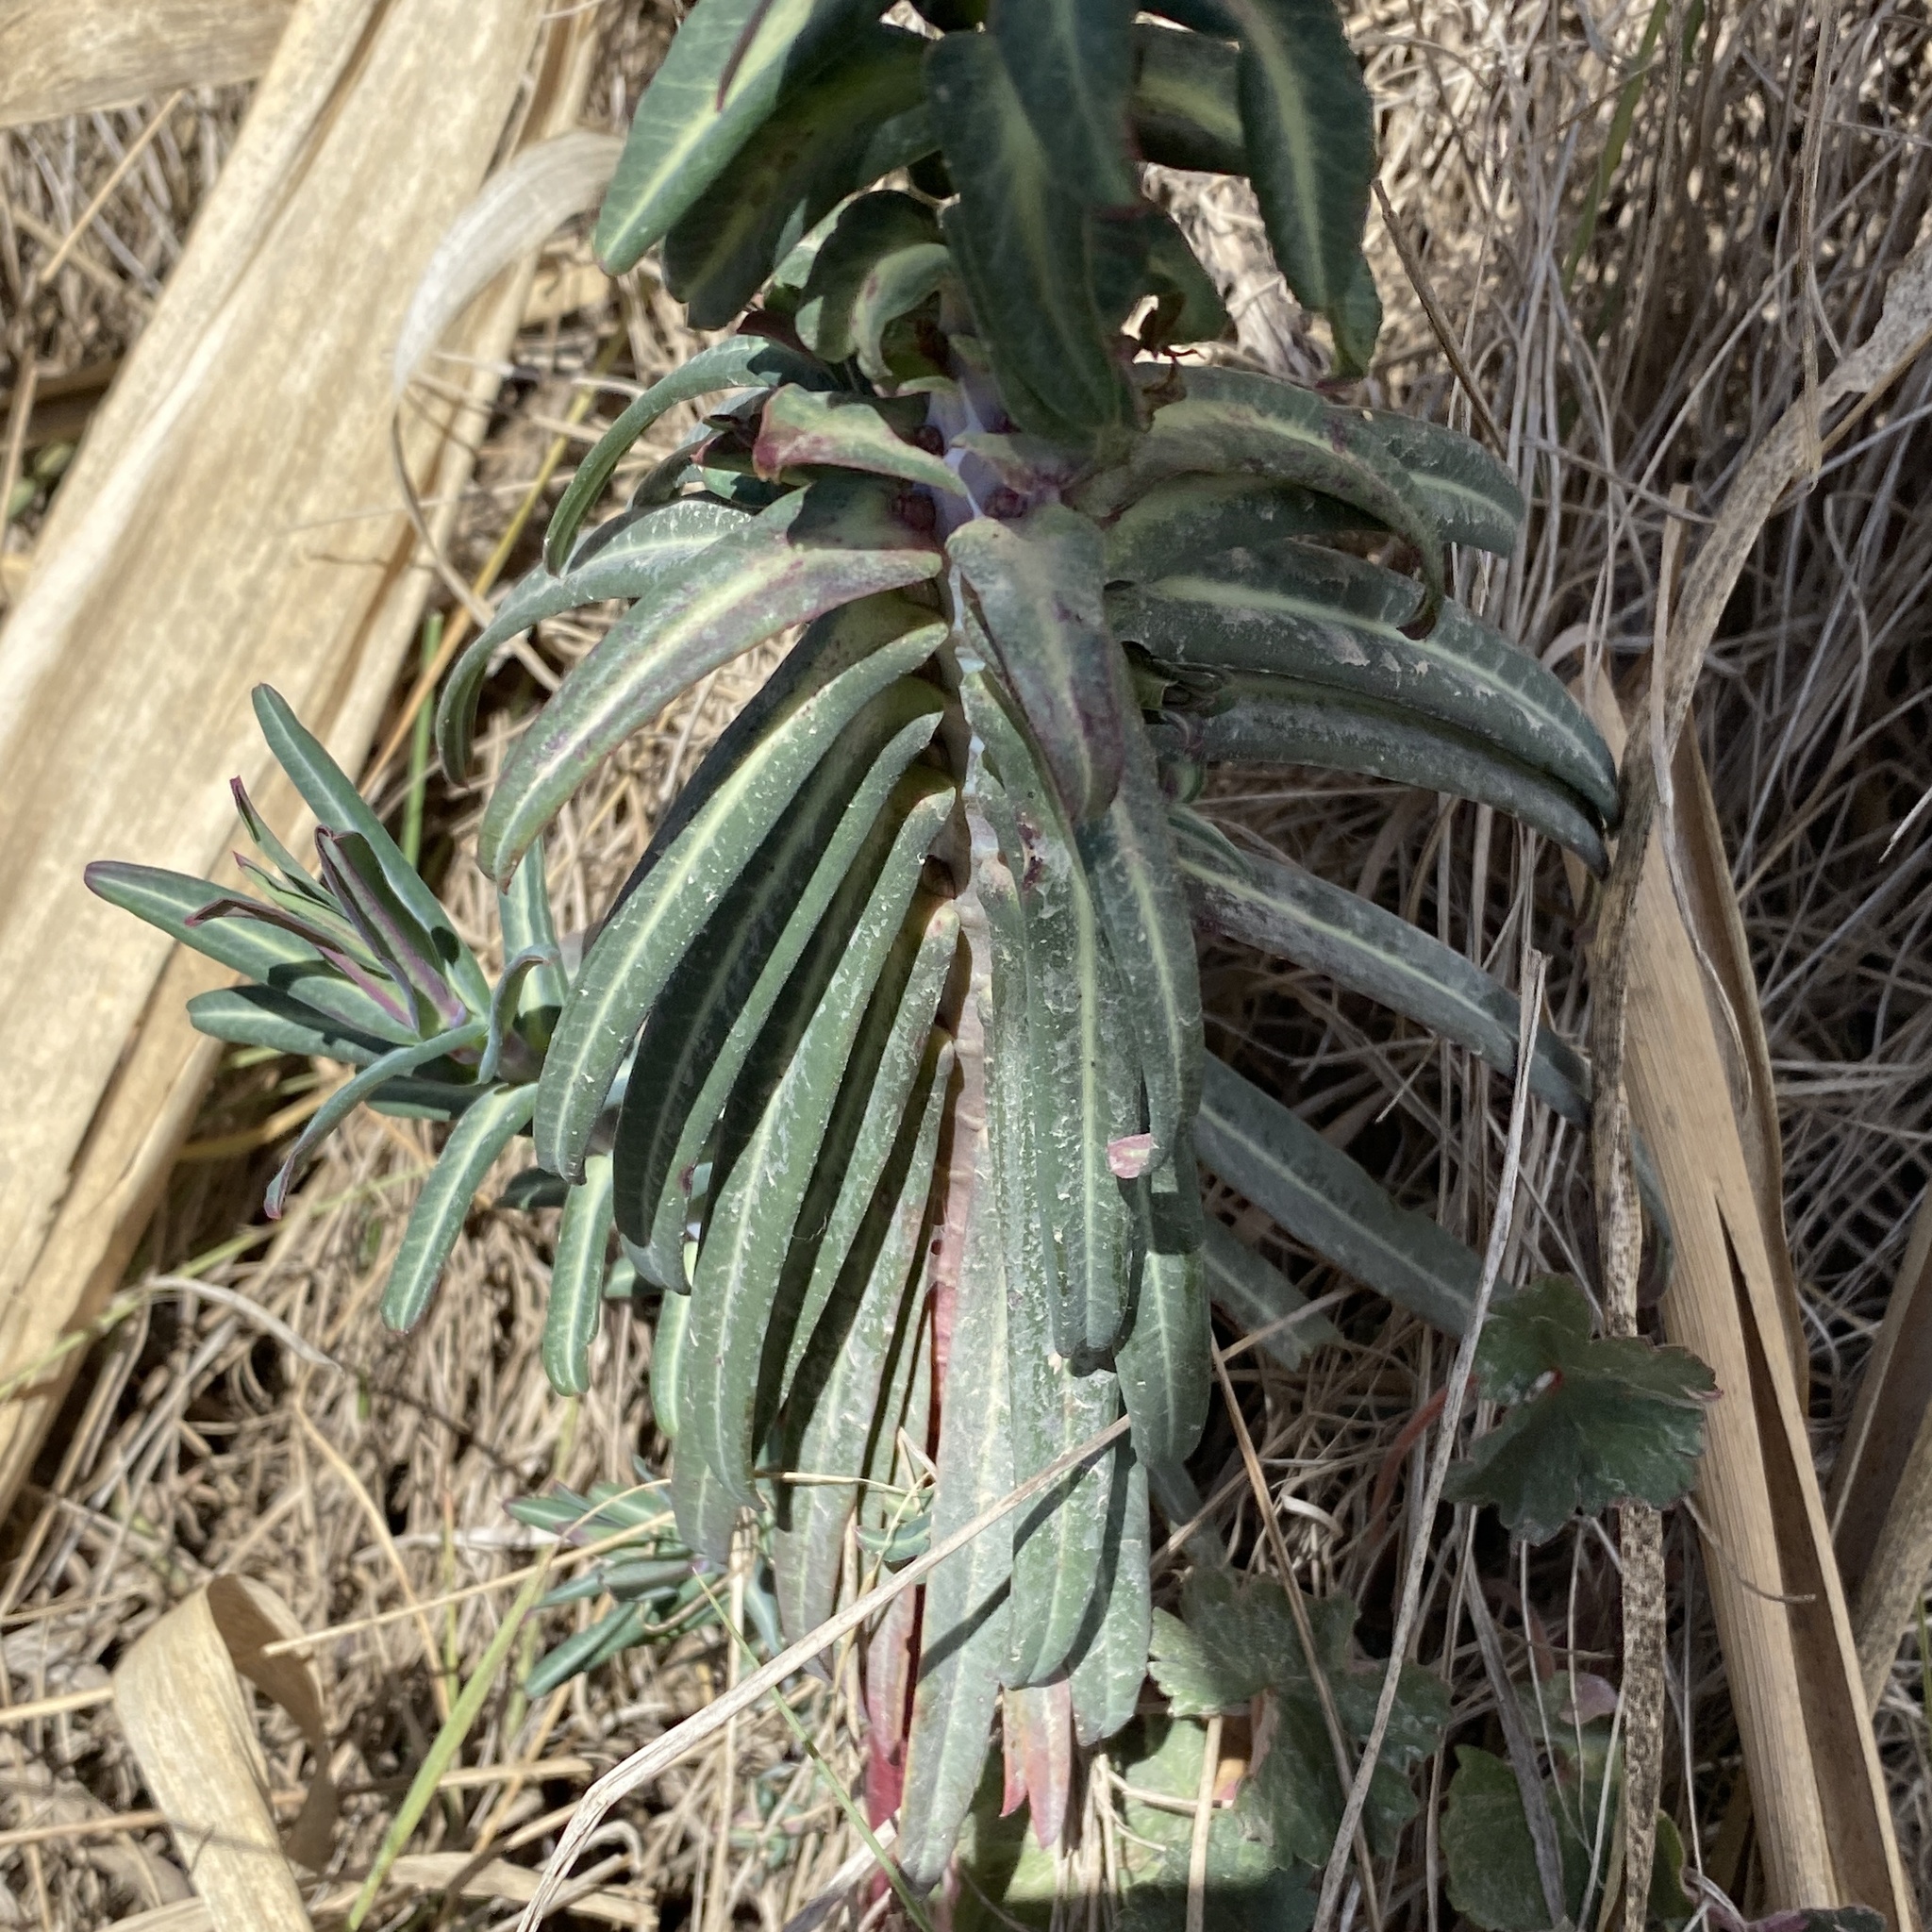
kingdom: Plantae
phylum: Tracheophyta
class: Magnoliopsida
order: Malpighiales
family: Euphorbiaceae
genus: Euphorbia
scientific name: Euphorbia lathyris
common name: Caper spurge
